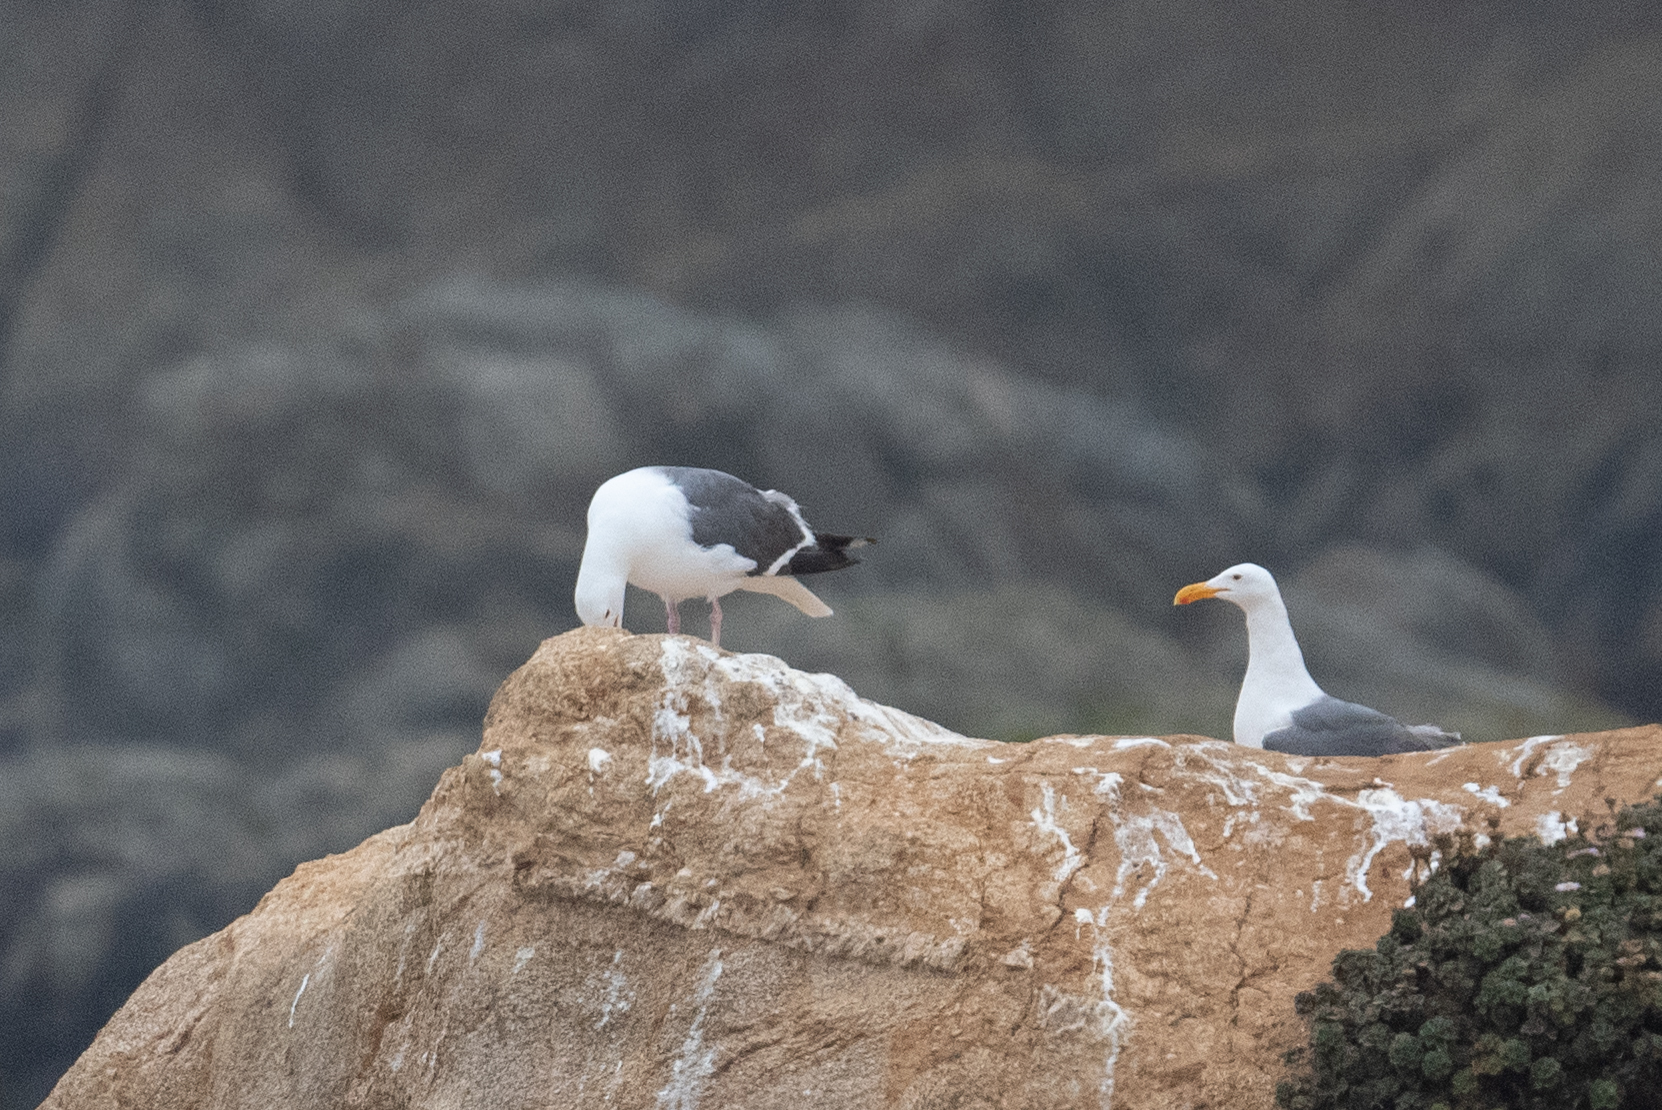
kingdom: Animalia
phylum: Chordata
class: Aves
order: Charadriiformes
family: Laridae
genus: Larus
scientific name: Larus occidentalis
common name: Western gull
